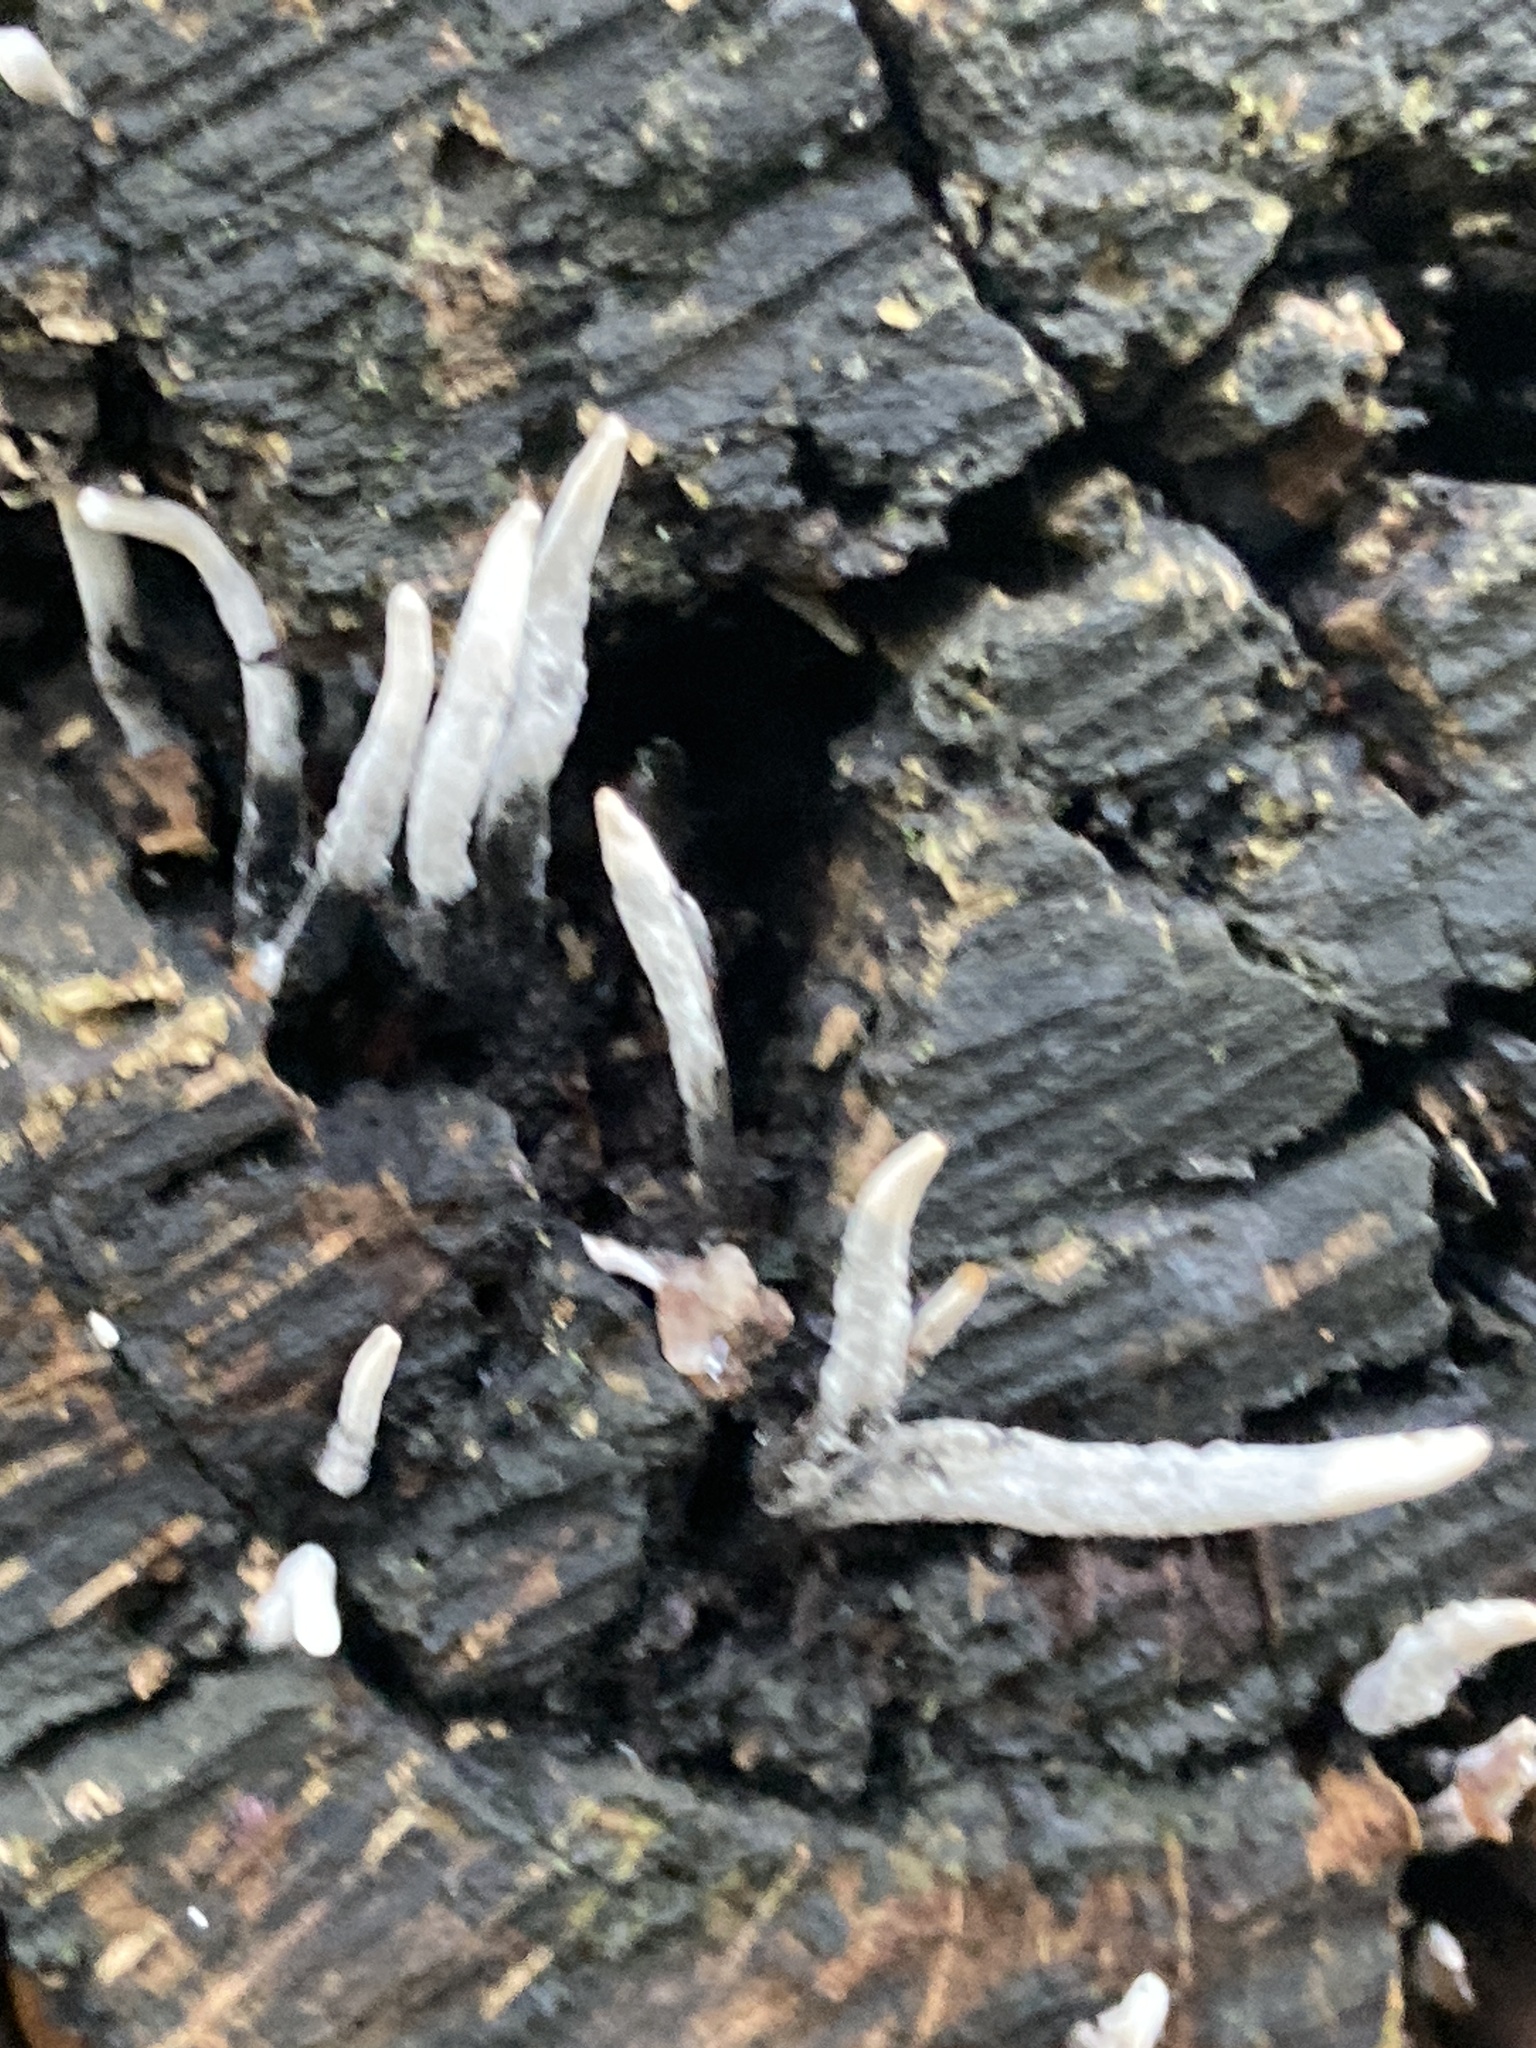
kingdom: Fungi
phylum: Ascomycota
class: Sordariomycetes
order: Xylariales
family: Xylariaceae
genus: Xylaria
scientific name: Xylaria hypoxylon
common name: Candle-snuff fungus
